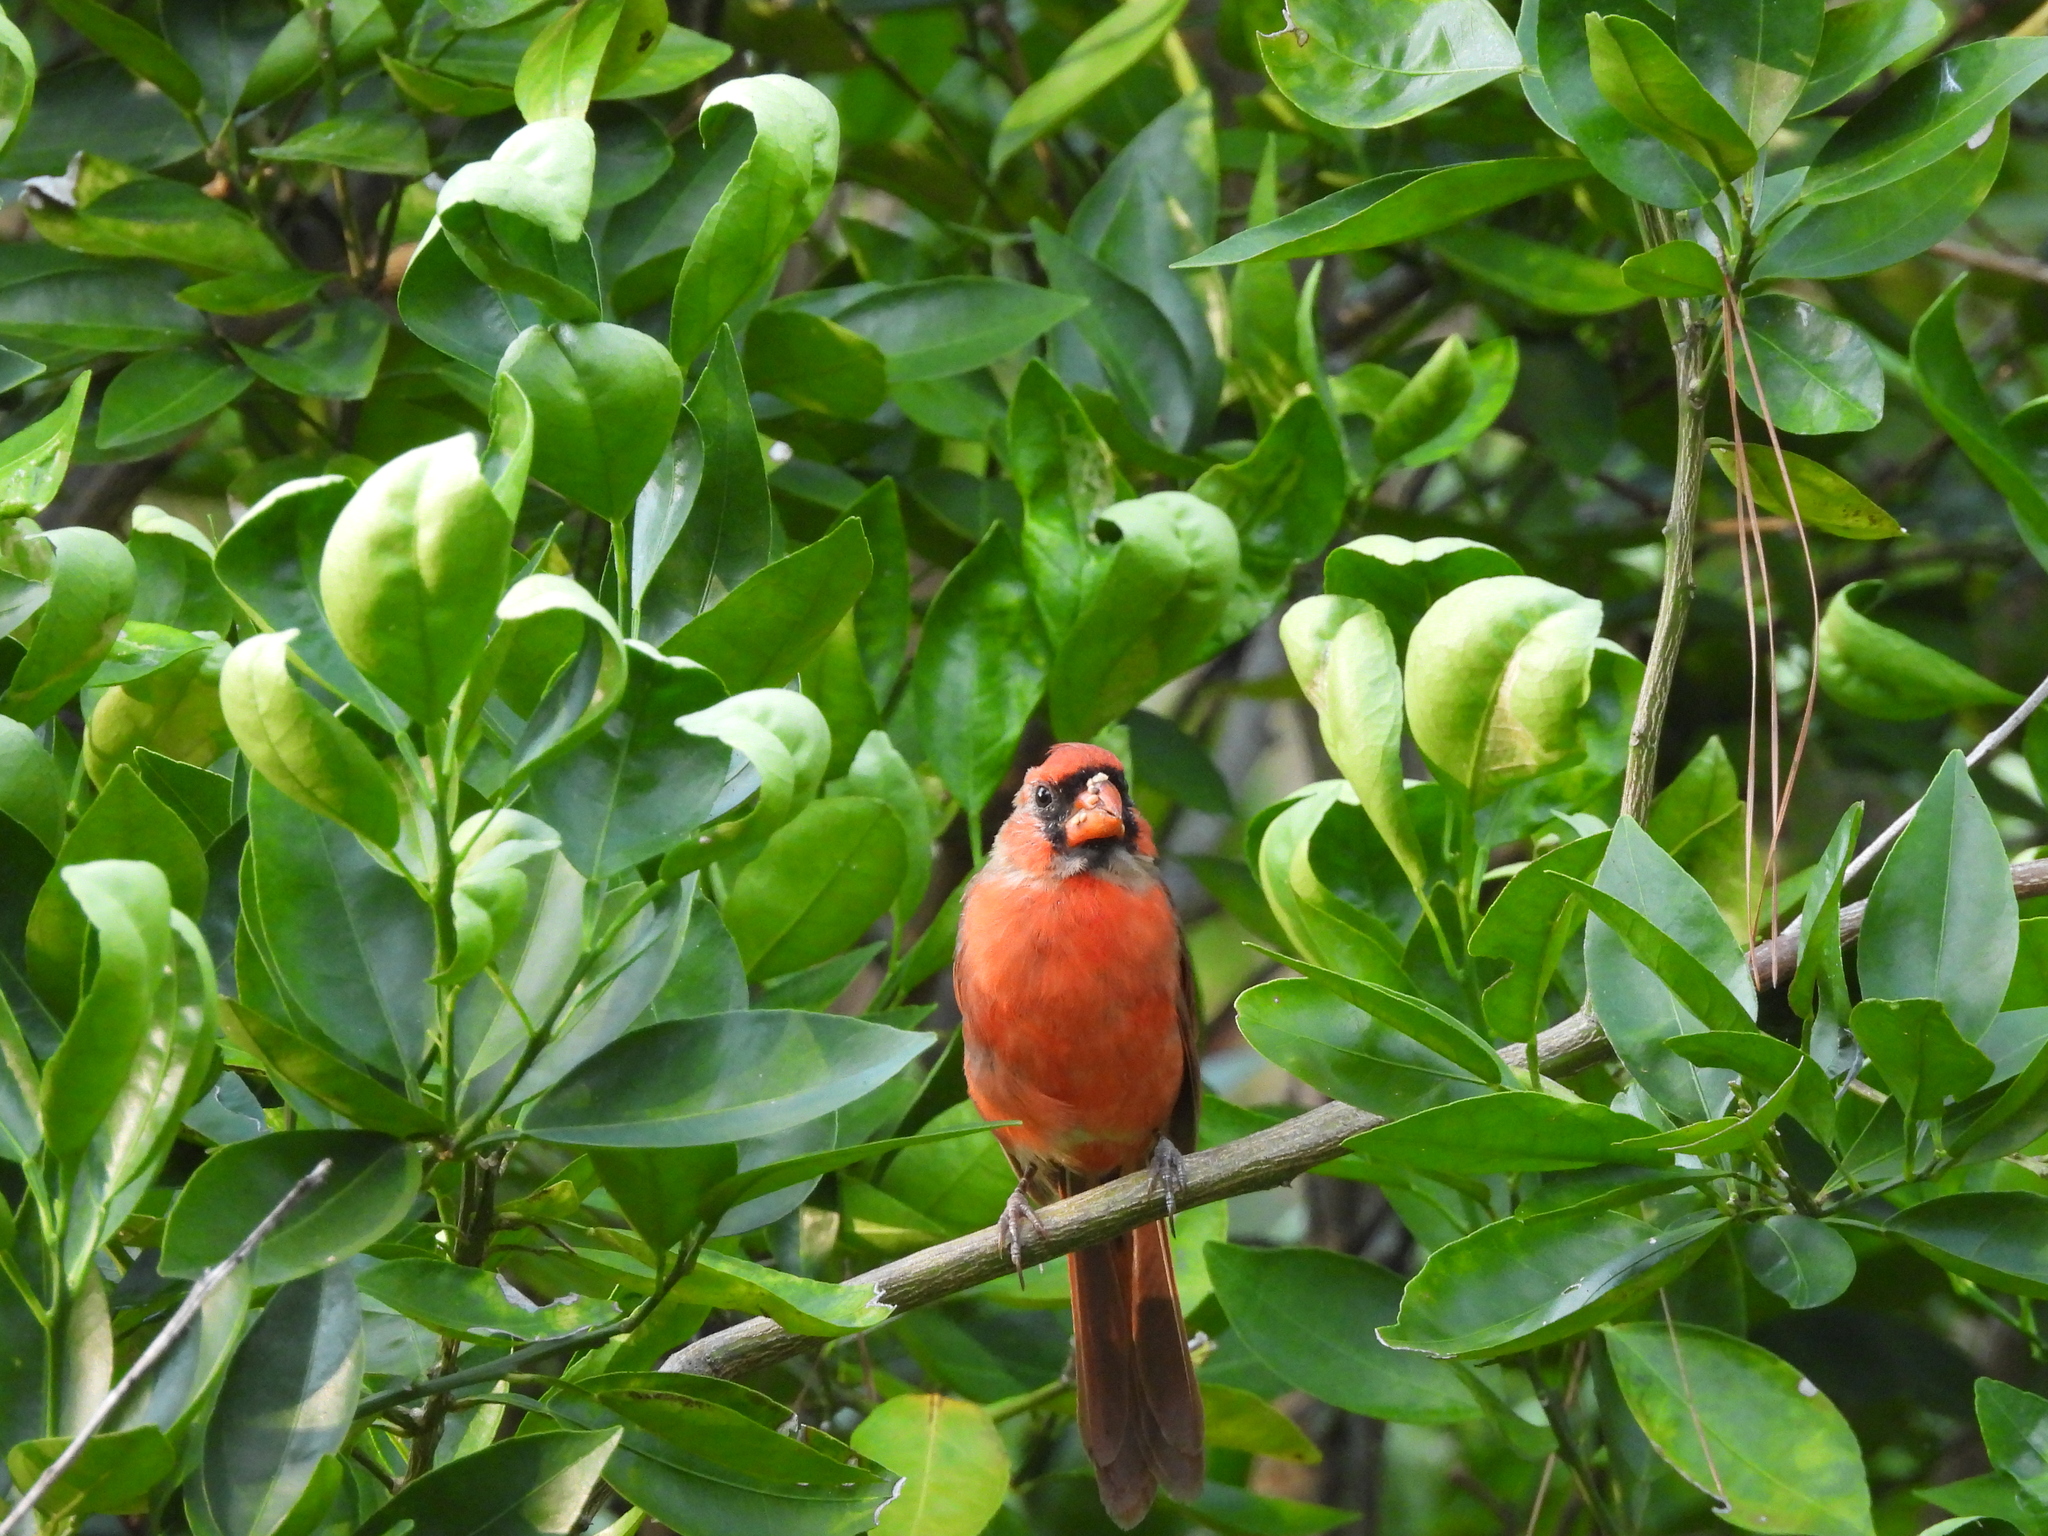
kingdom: Animalia
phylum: Chordata
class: Aves
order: Passeriformes
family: Cardinalidae
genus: Cardinalis
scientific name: Cardinalis cardinalis
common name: Northern cardinal
